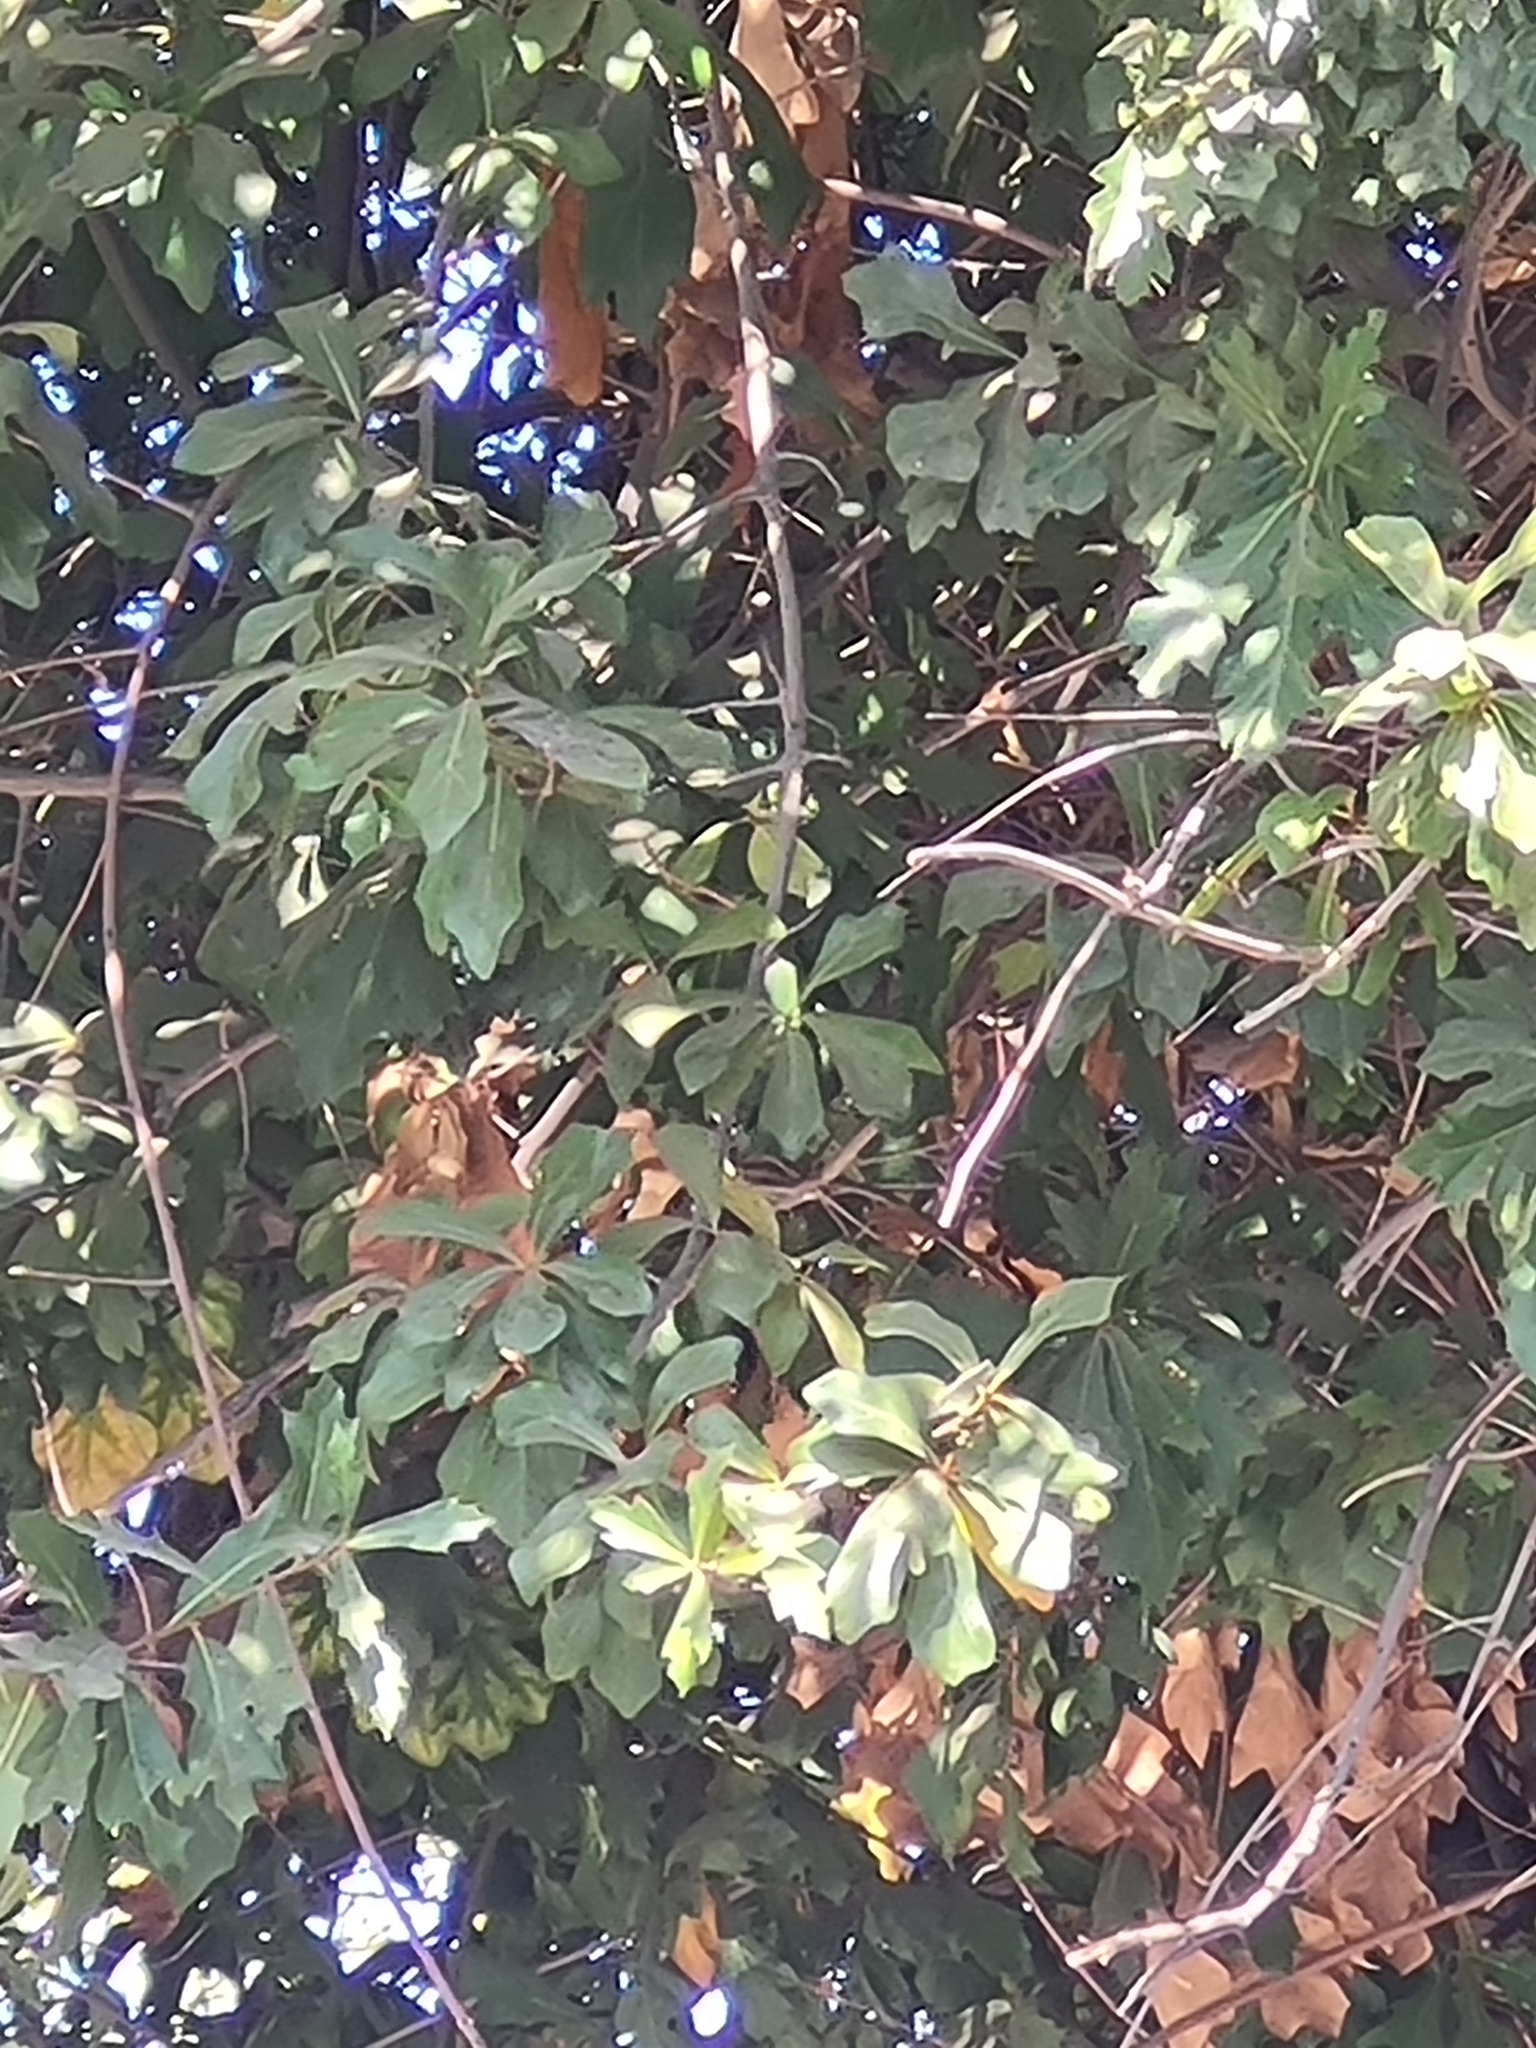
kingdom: Plantae
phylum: Tracheophyta
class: Magnoliopsida
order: Fagales
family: Fagaceae
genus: Quercus
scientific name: Quercus nigra
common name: Water oak
